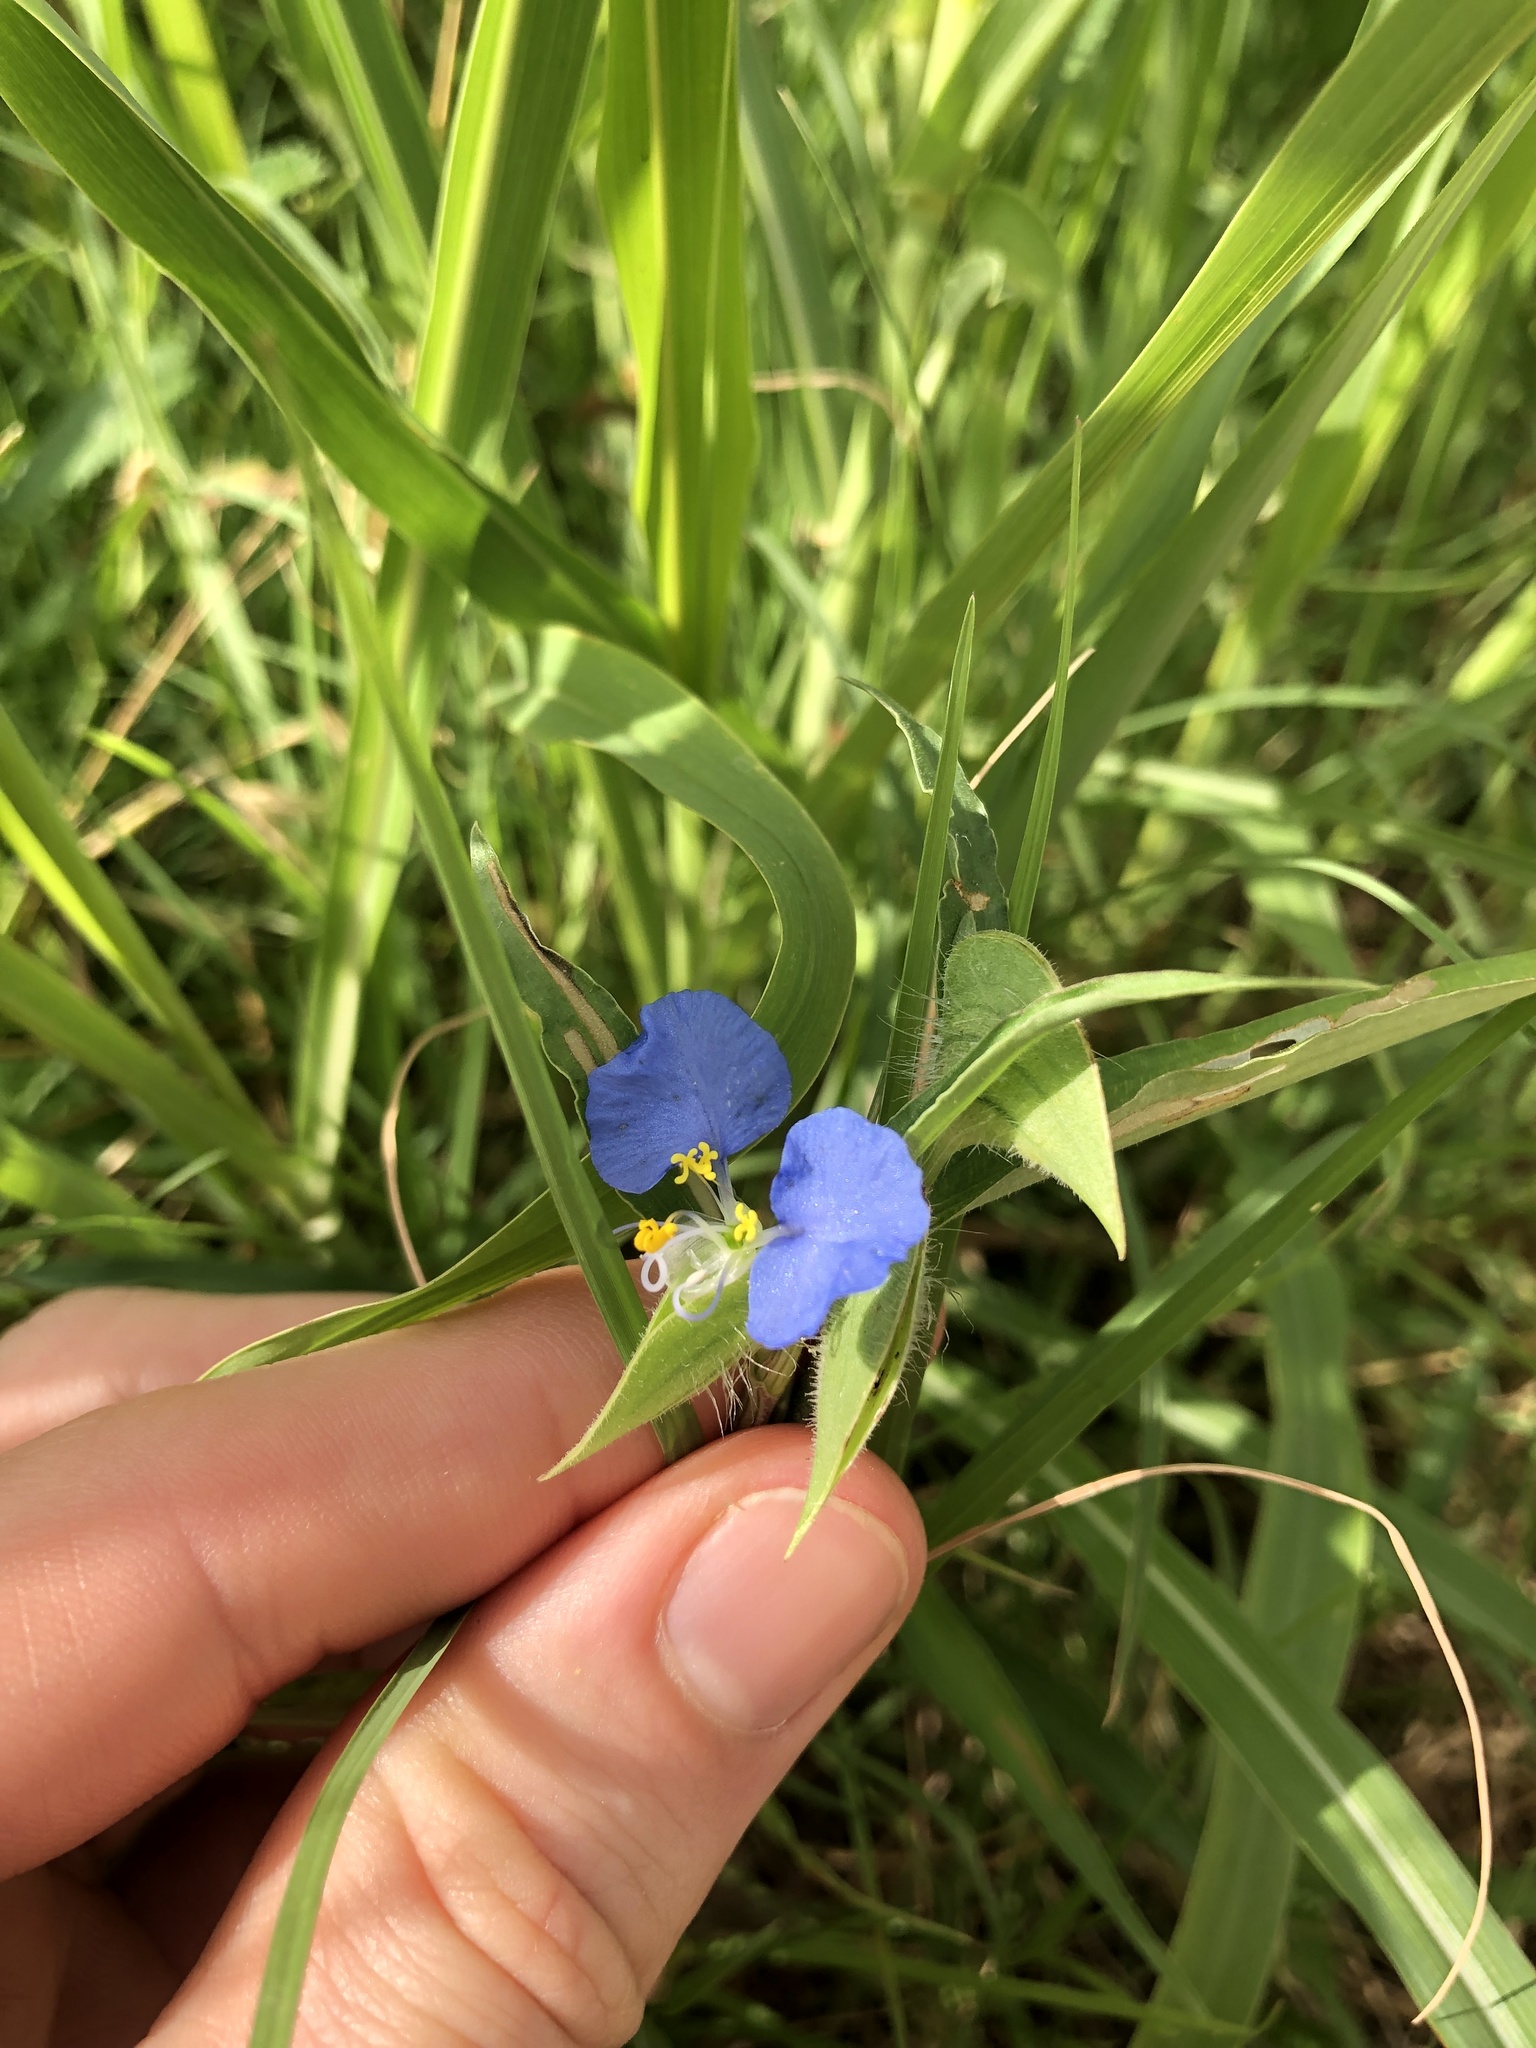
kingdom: Plantae
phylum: Tracheophyta
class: Liliopsida
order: Commelinales
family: Commelinaceae
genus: Commelina
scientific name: Commelina erecta
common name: Blousel blommetjie
